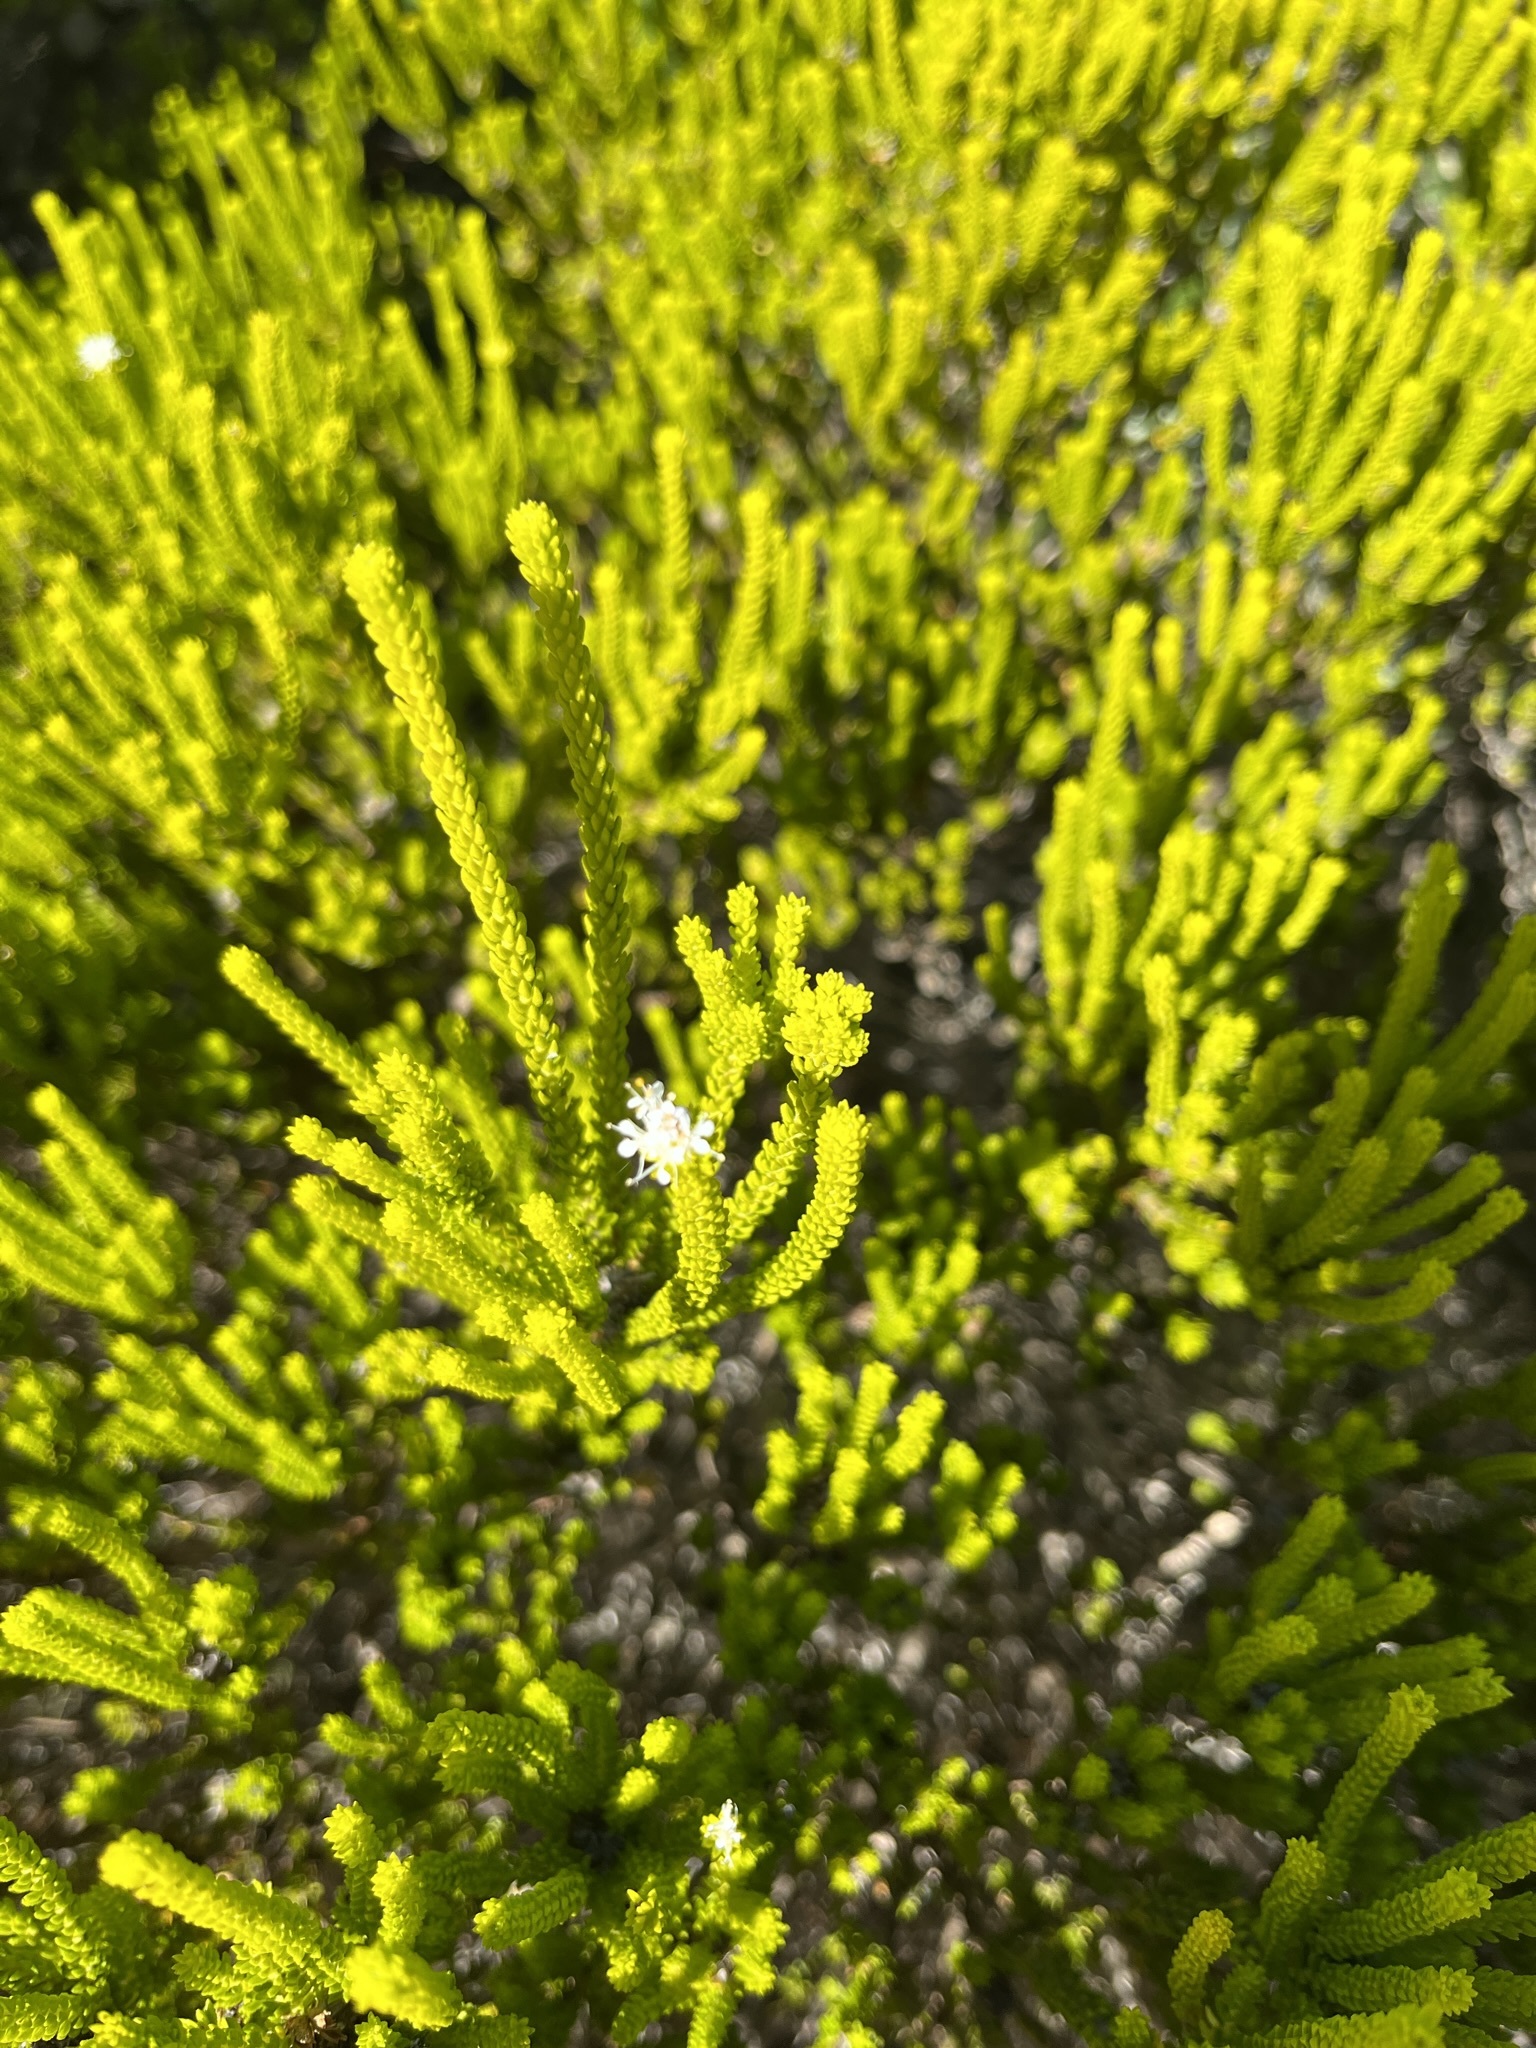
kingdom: Plantae
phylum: Tracheophyta
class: Magnoliopsida
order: Sapindales
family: Rutaceae
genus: Agathosma
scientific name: Agathosma collina
